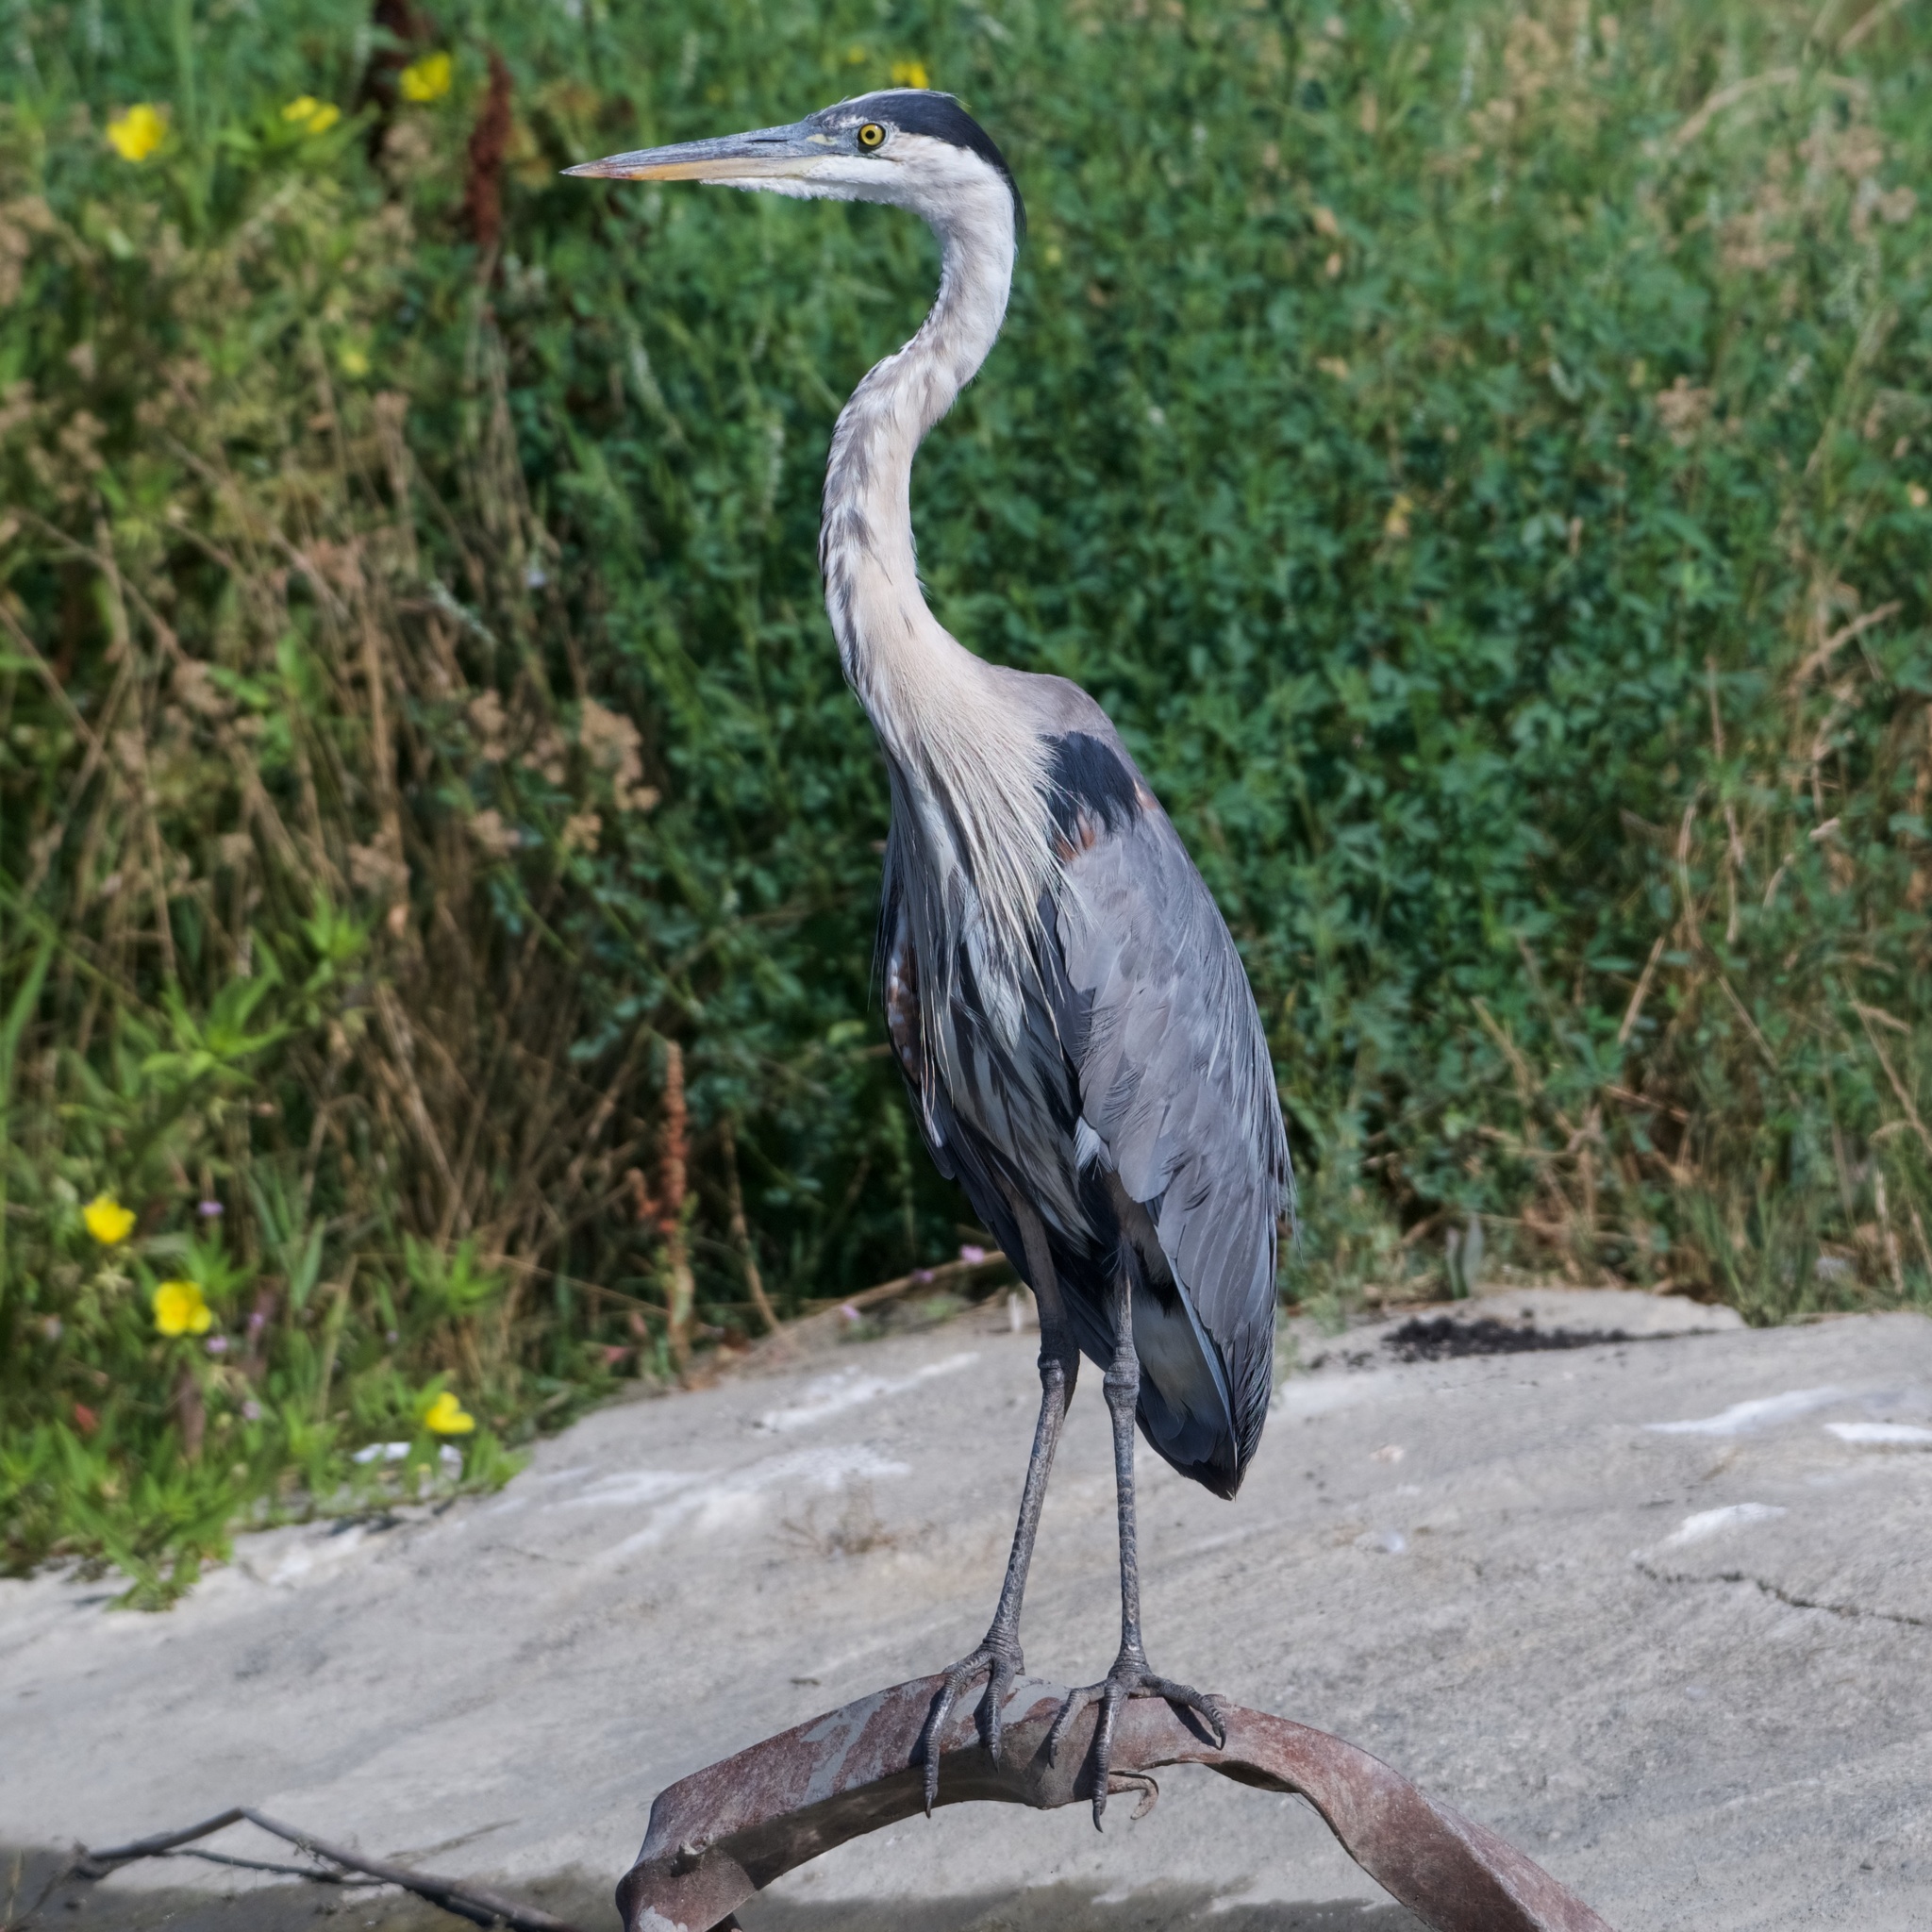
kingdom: Animalia
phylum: Chordata
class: Aves
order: Pelecaniformes
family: Ardeidae
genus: Ardea
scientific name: Ardea herodias
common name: Great blue heron
